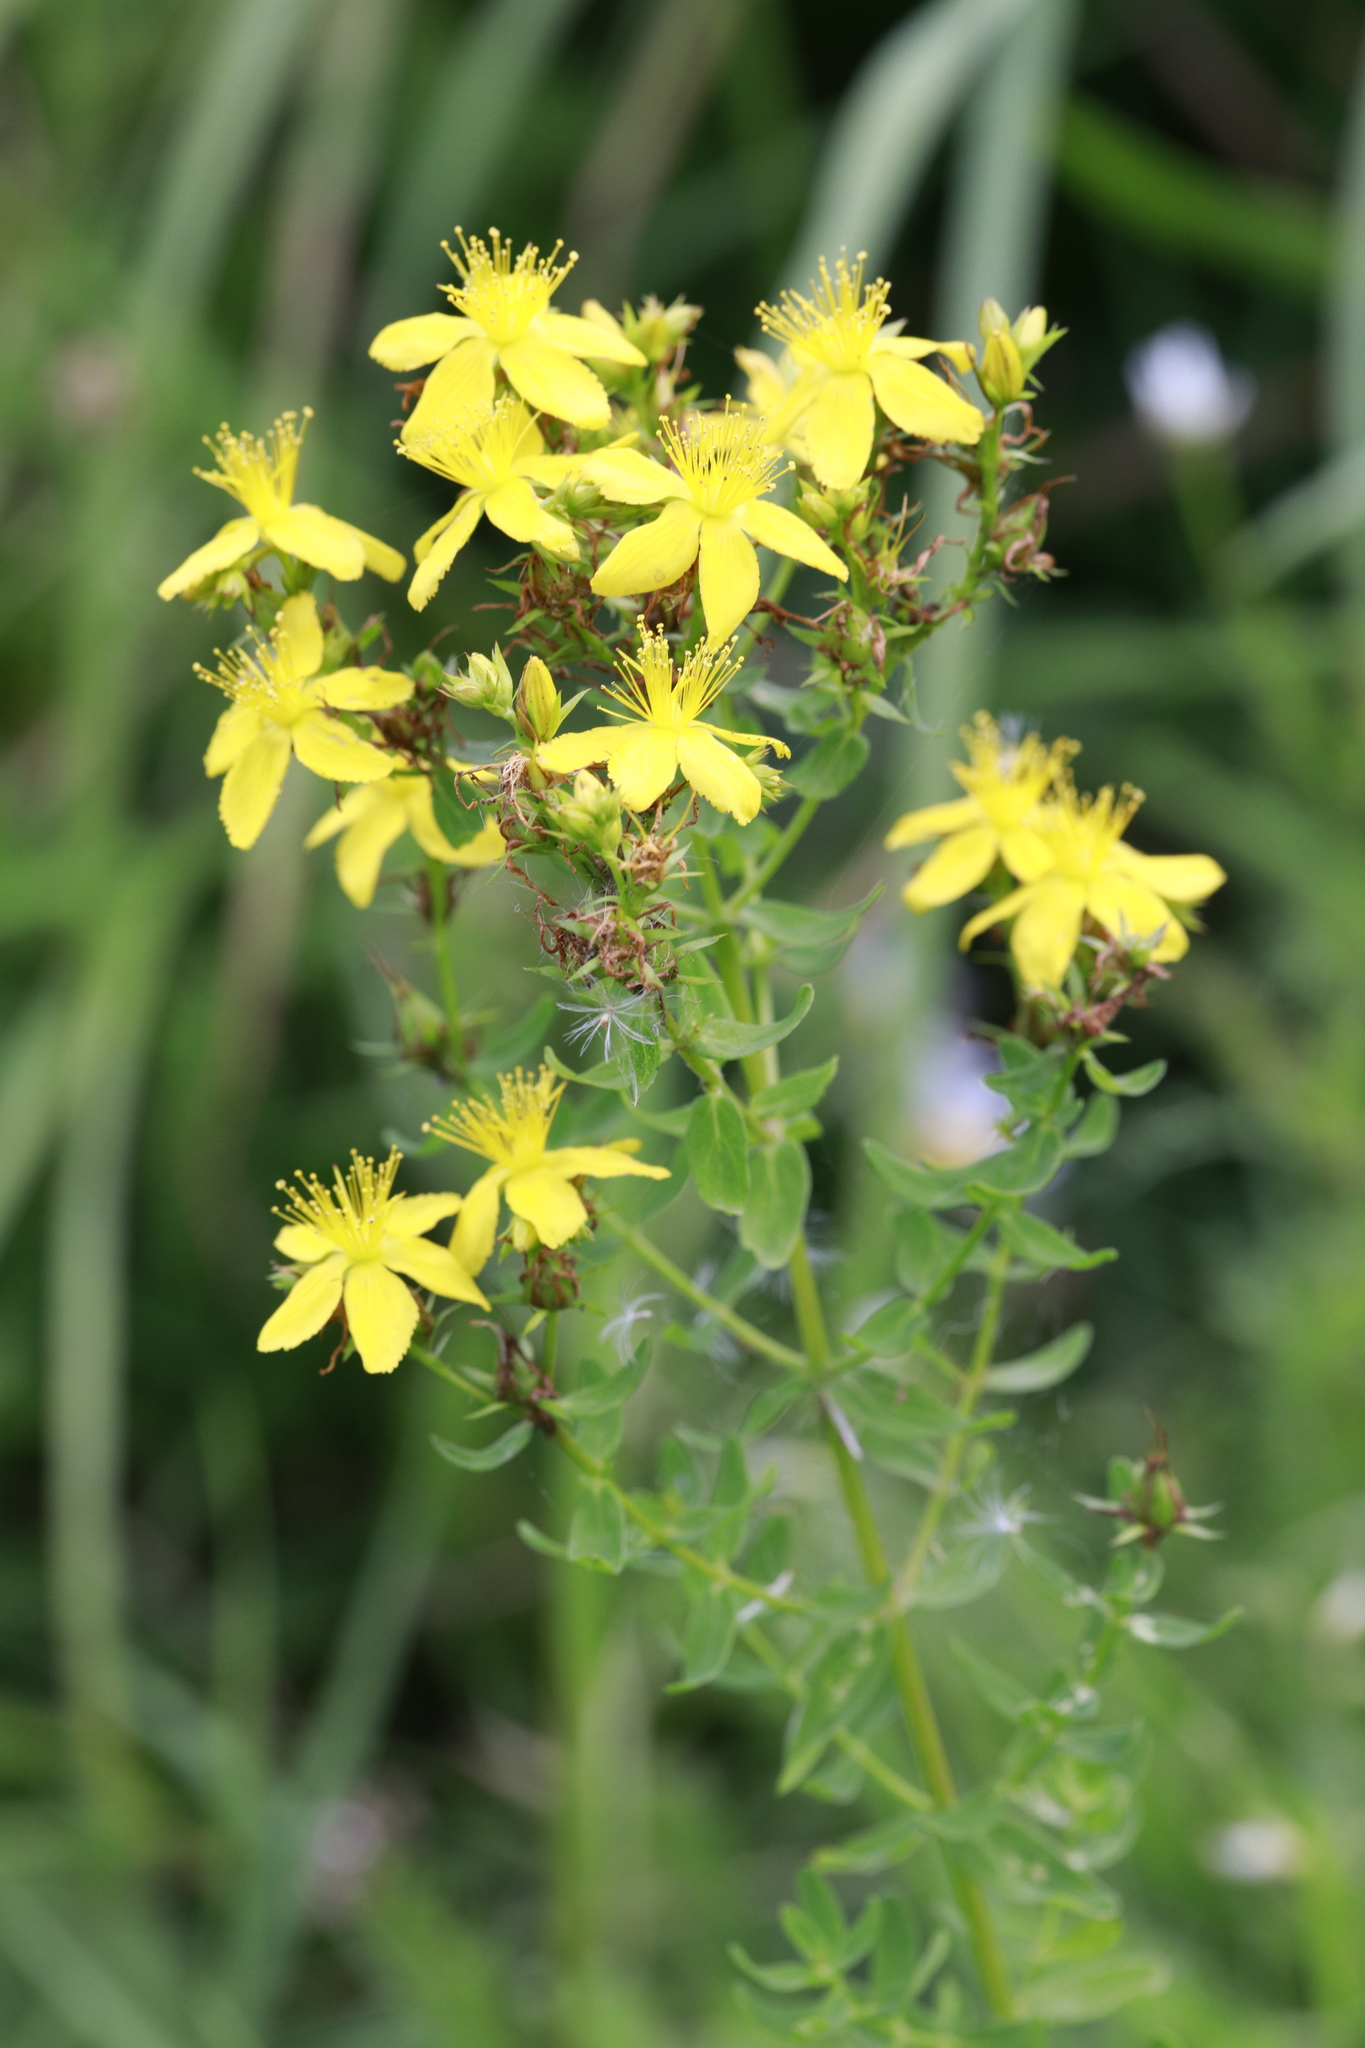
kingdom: Plantae
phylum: Tracheophyta
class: Magnoliopsida
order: Malpighiales
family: Hypericaceae
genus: Hypericum
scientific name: Hypericum perforatum
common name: Common st. johnswort
